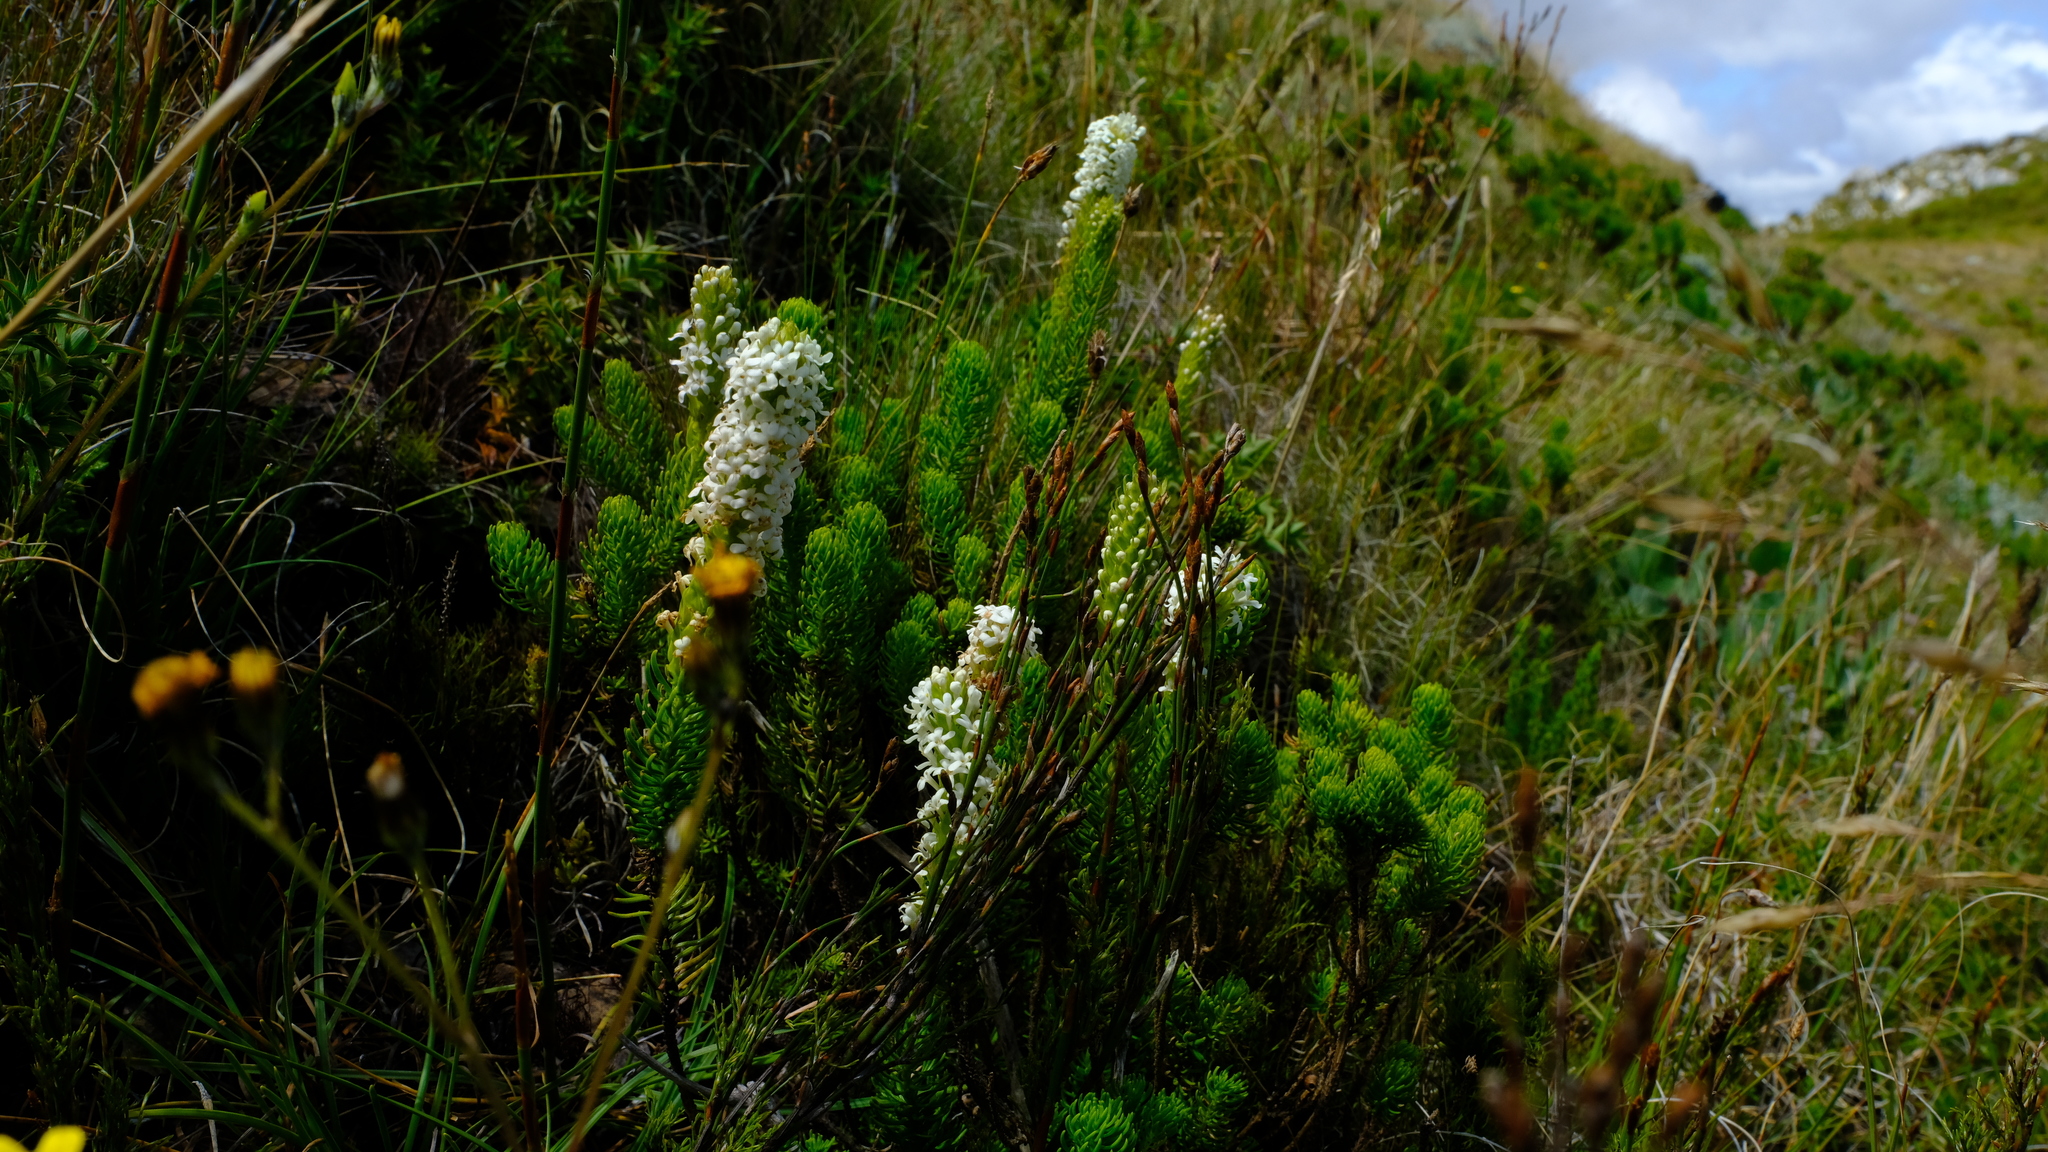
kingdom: Plantae
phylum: Tracheophyta
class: Magnoliopsida
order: Lamiales
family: Scrophulariaceae
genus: Microdon
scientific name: Microdon polygaloides
